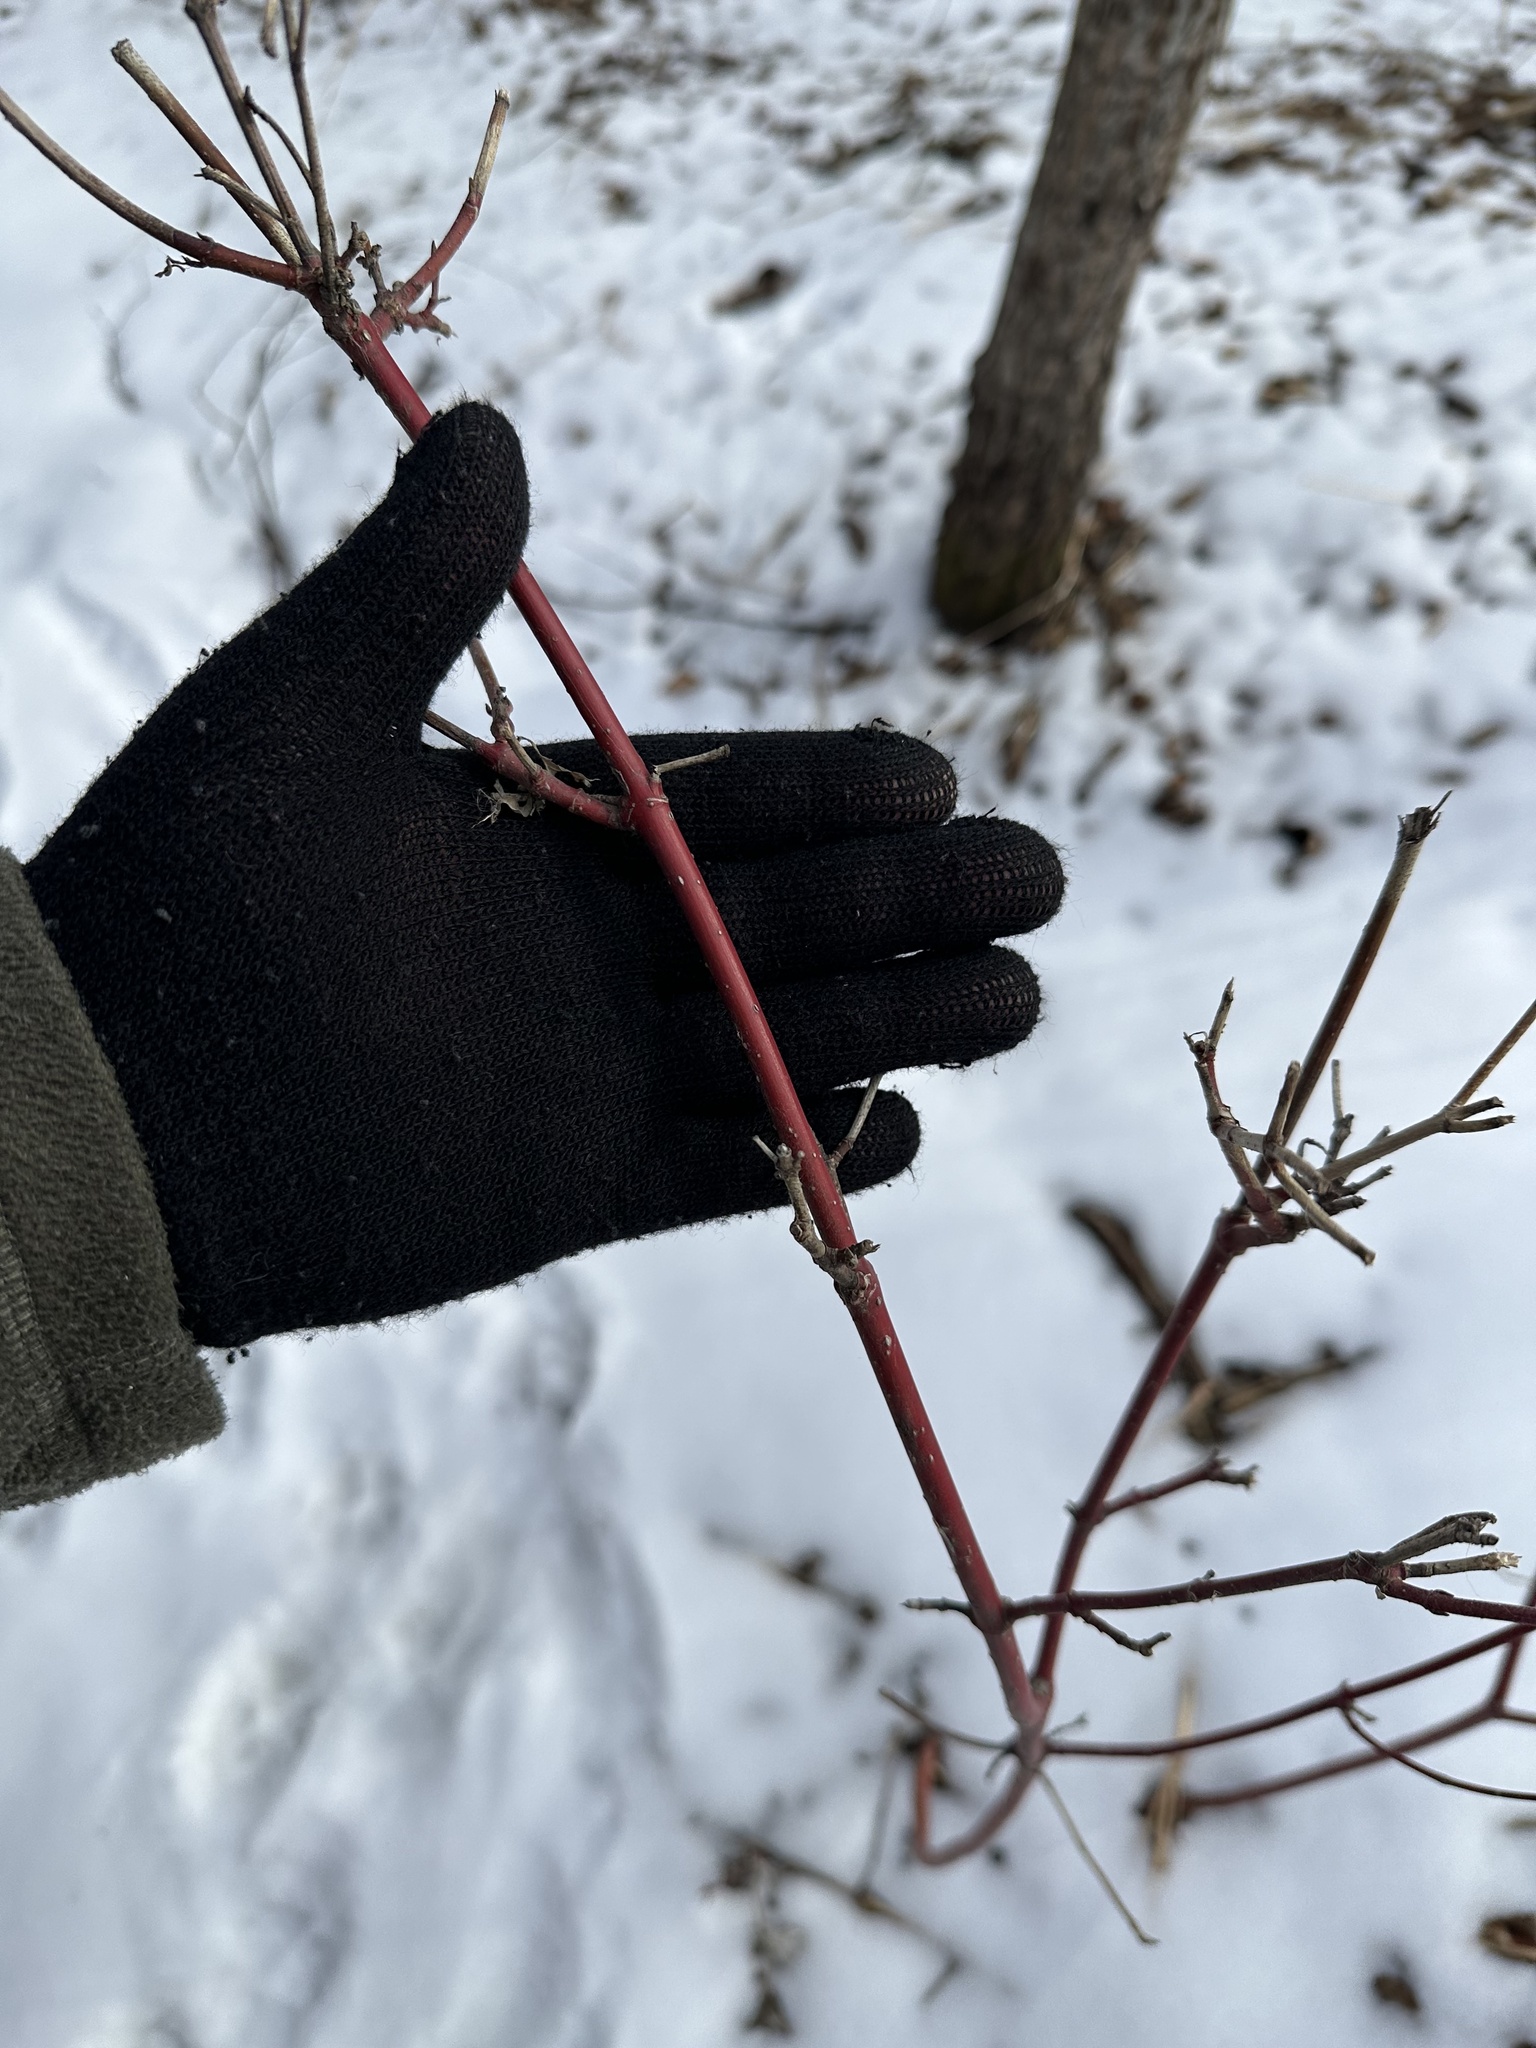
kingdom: Plantae
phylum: Tracheophyta
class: Magnoliopsida
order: Cornales
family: Cornaceae
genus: Cornus
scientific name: Cornus sericea
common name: Red-osier dogwood
